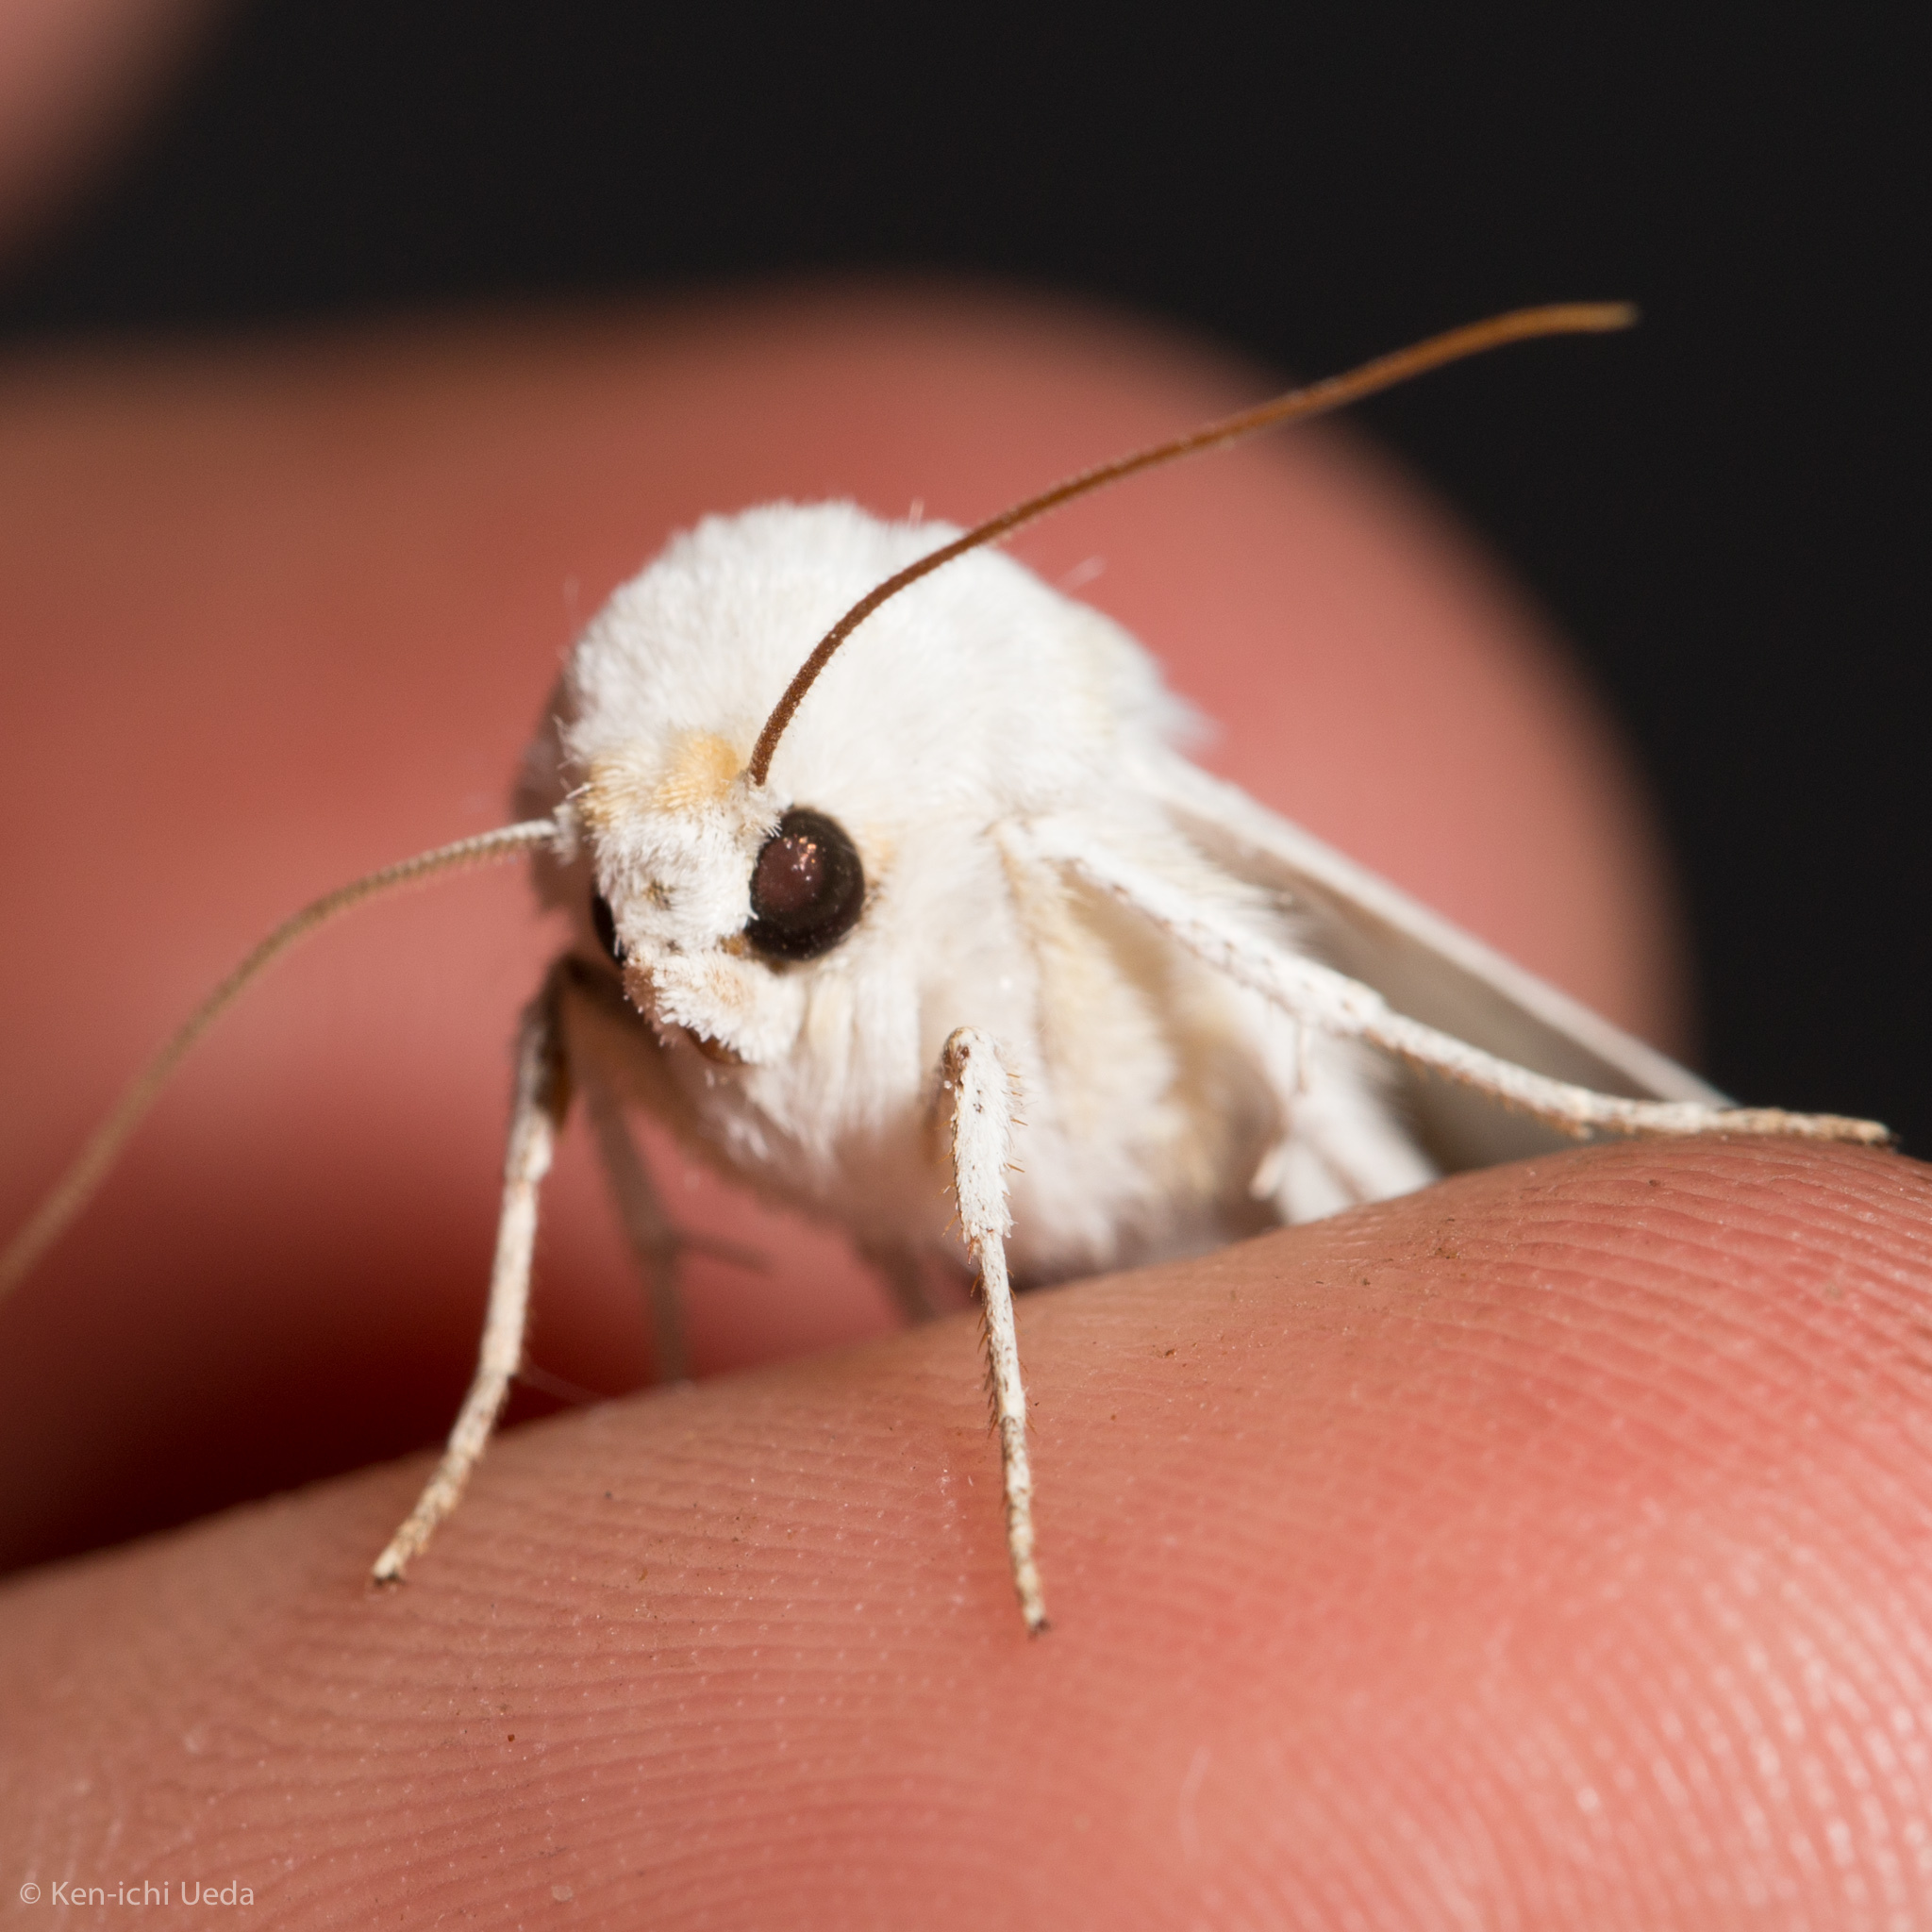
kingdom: Animalia
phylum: Arthropoda
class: Insecta
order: Lepidoptera
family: Noctuidae
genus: Protogygia
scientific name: Protogygia album
